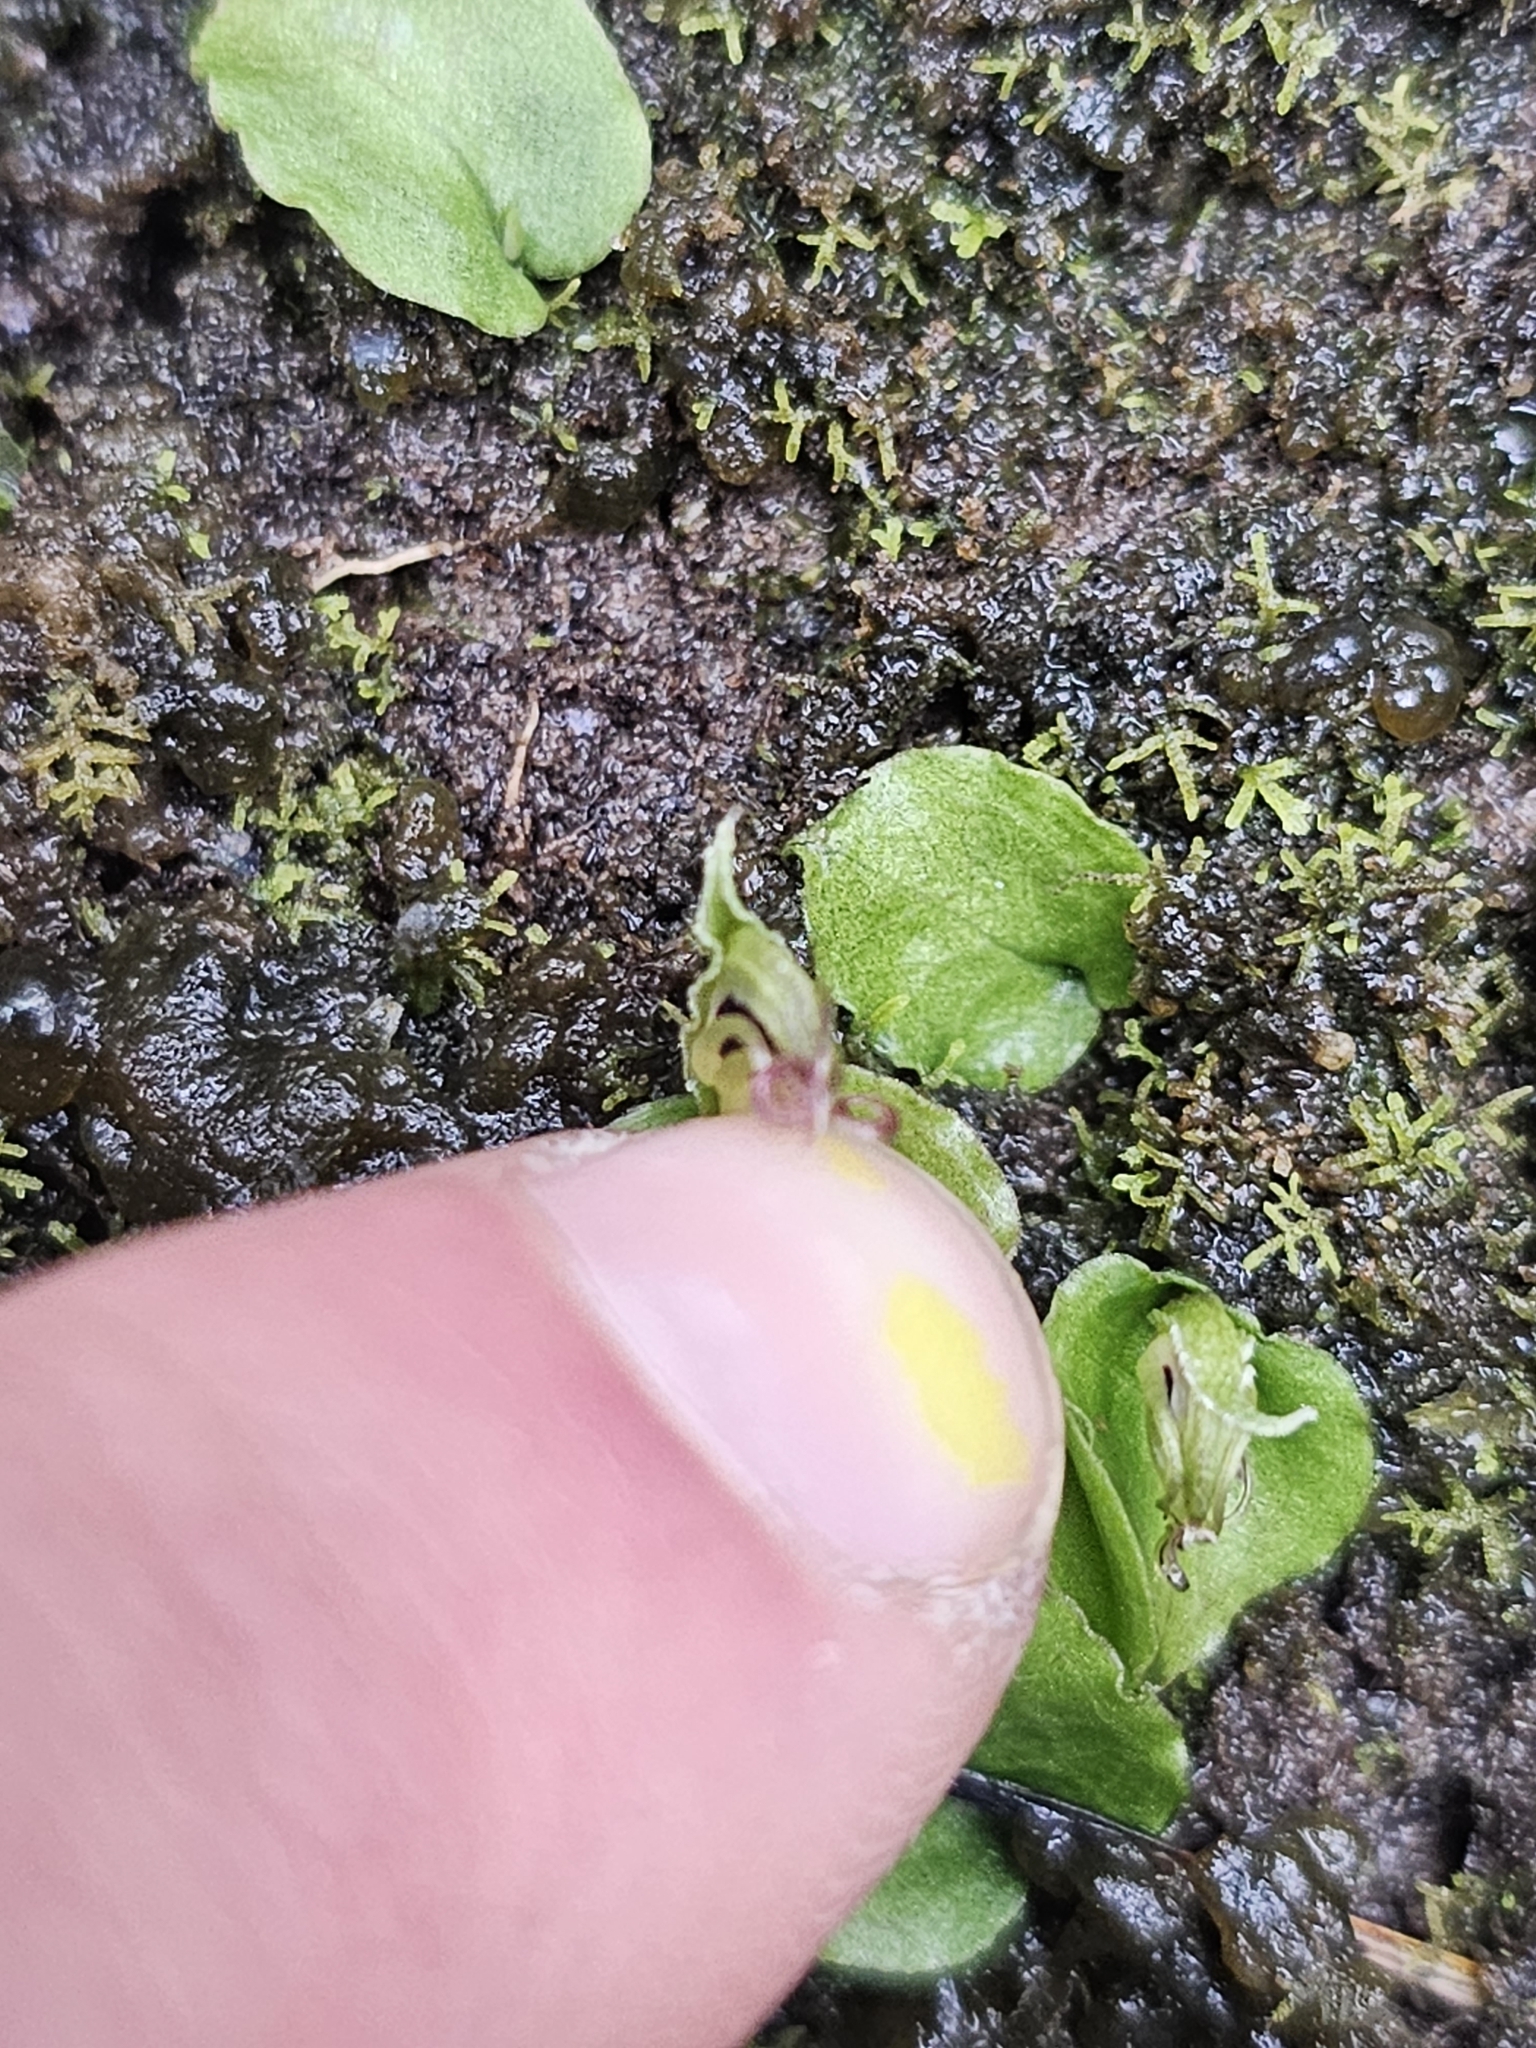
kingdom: Plantae
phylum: Tracheophyta
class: Liliopsida
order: Asparagales
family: Orchidaceae
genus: Corybas
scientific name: Corybas oblongus
